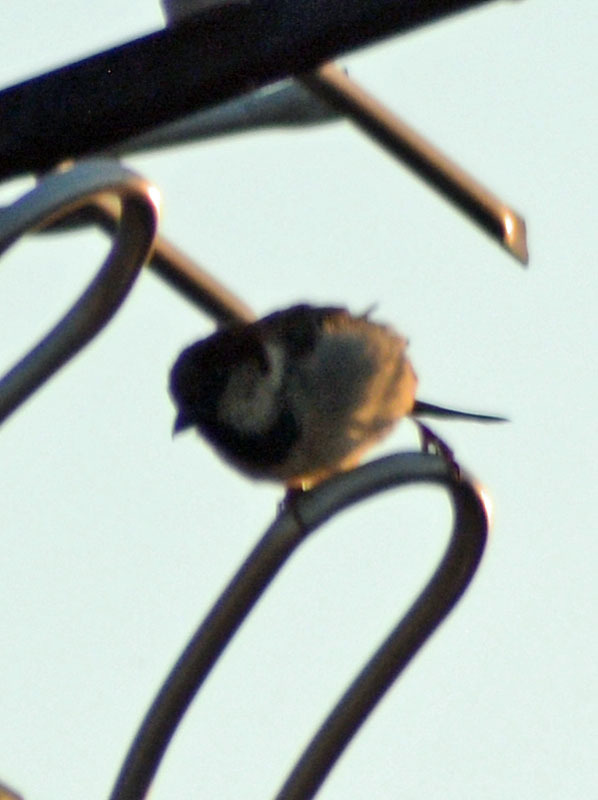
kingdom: Animalia
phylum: Chordata
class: Aves
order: Passeriformes
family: Passeridae
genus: Passer
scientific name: Passer domesticus
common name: House sparrow
